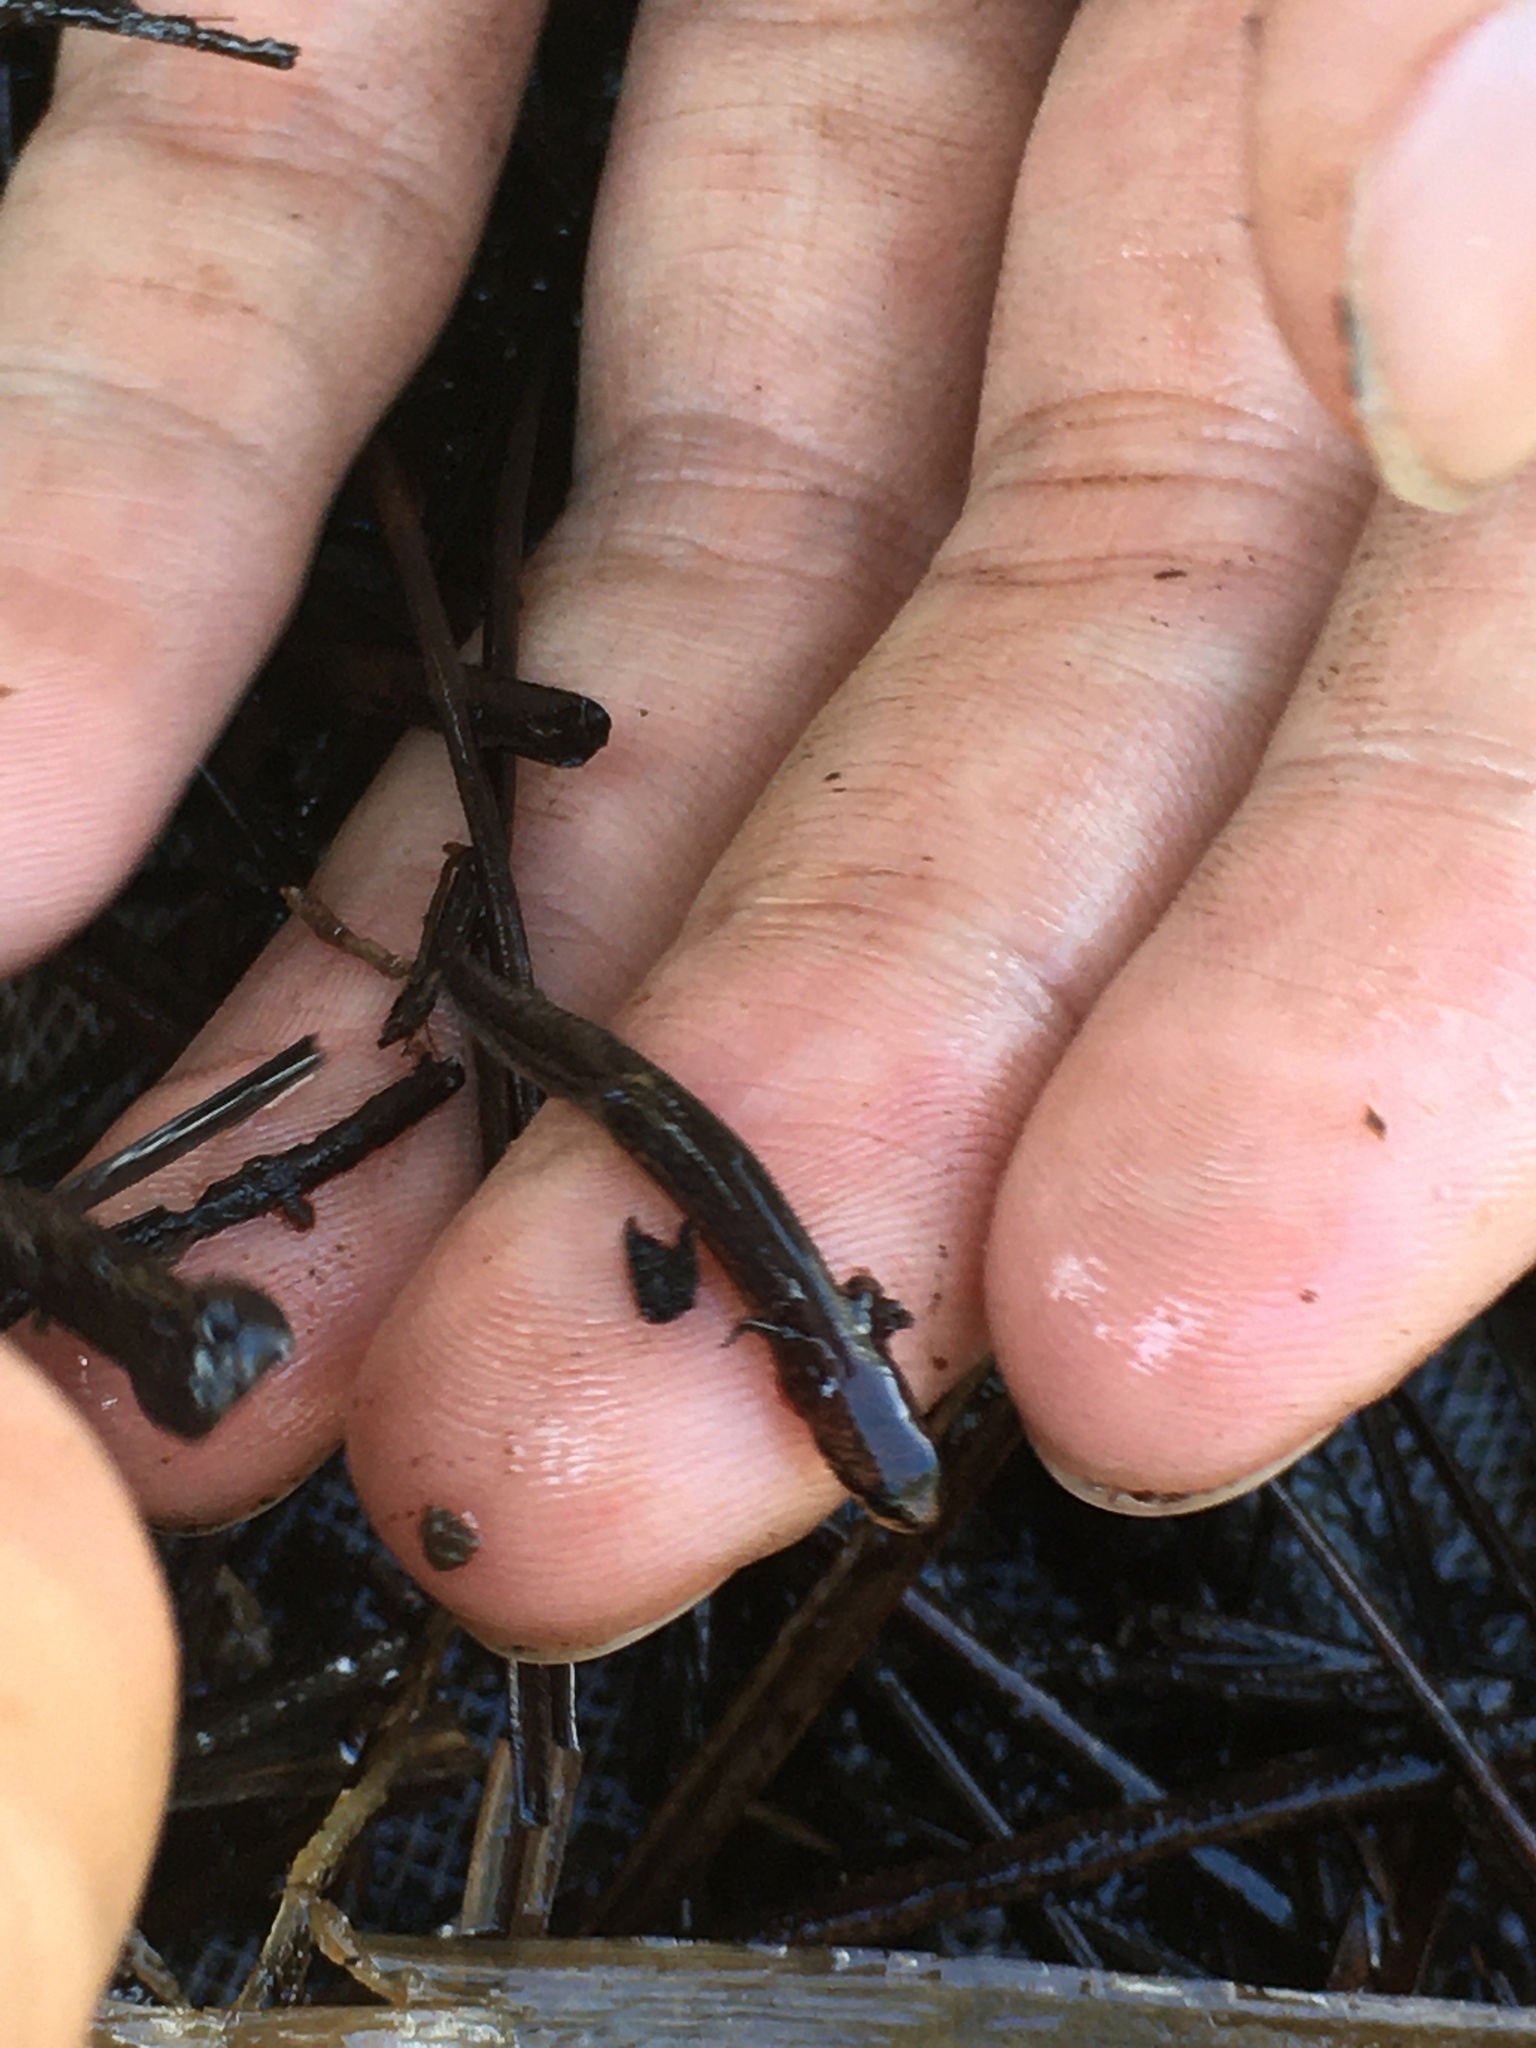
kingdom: Animalia
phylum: Chordata
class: Amphibia
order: Caudata
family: Plethodontidae
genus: Eurycea
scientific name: Eurycea quadridigitata
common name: Dwarf salamander
